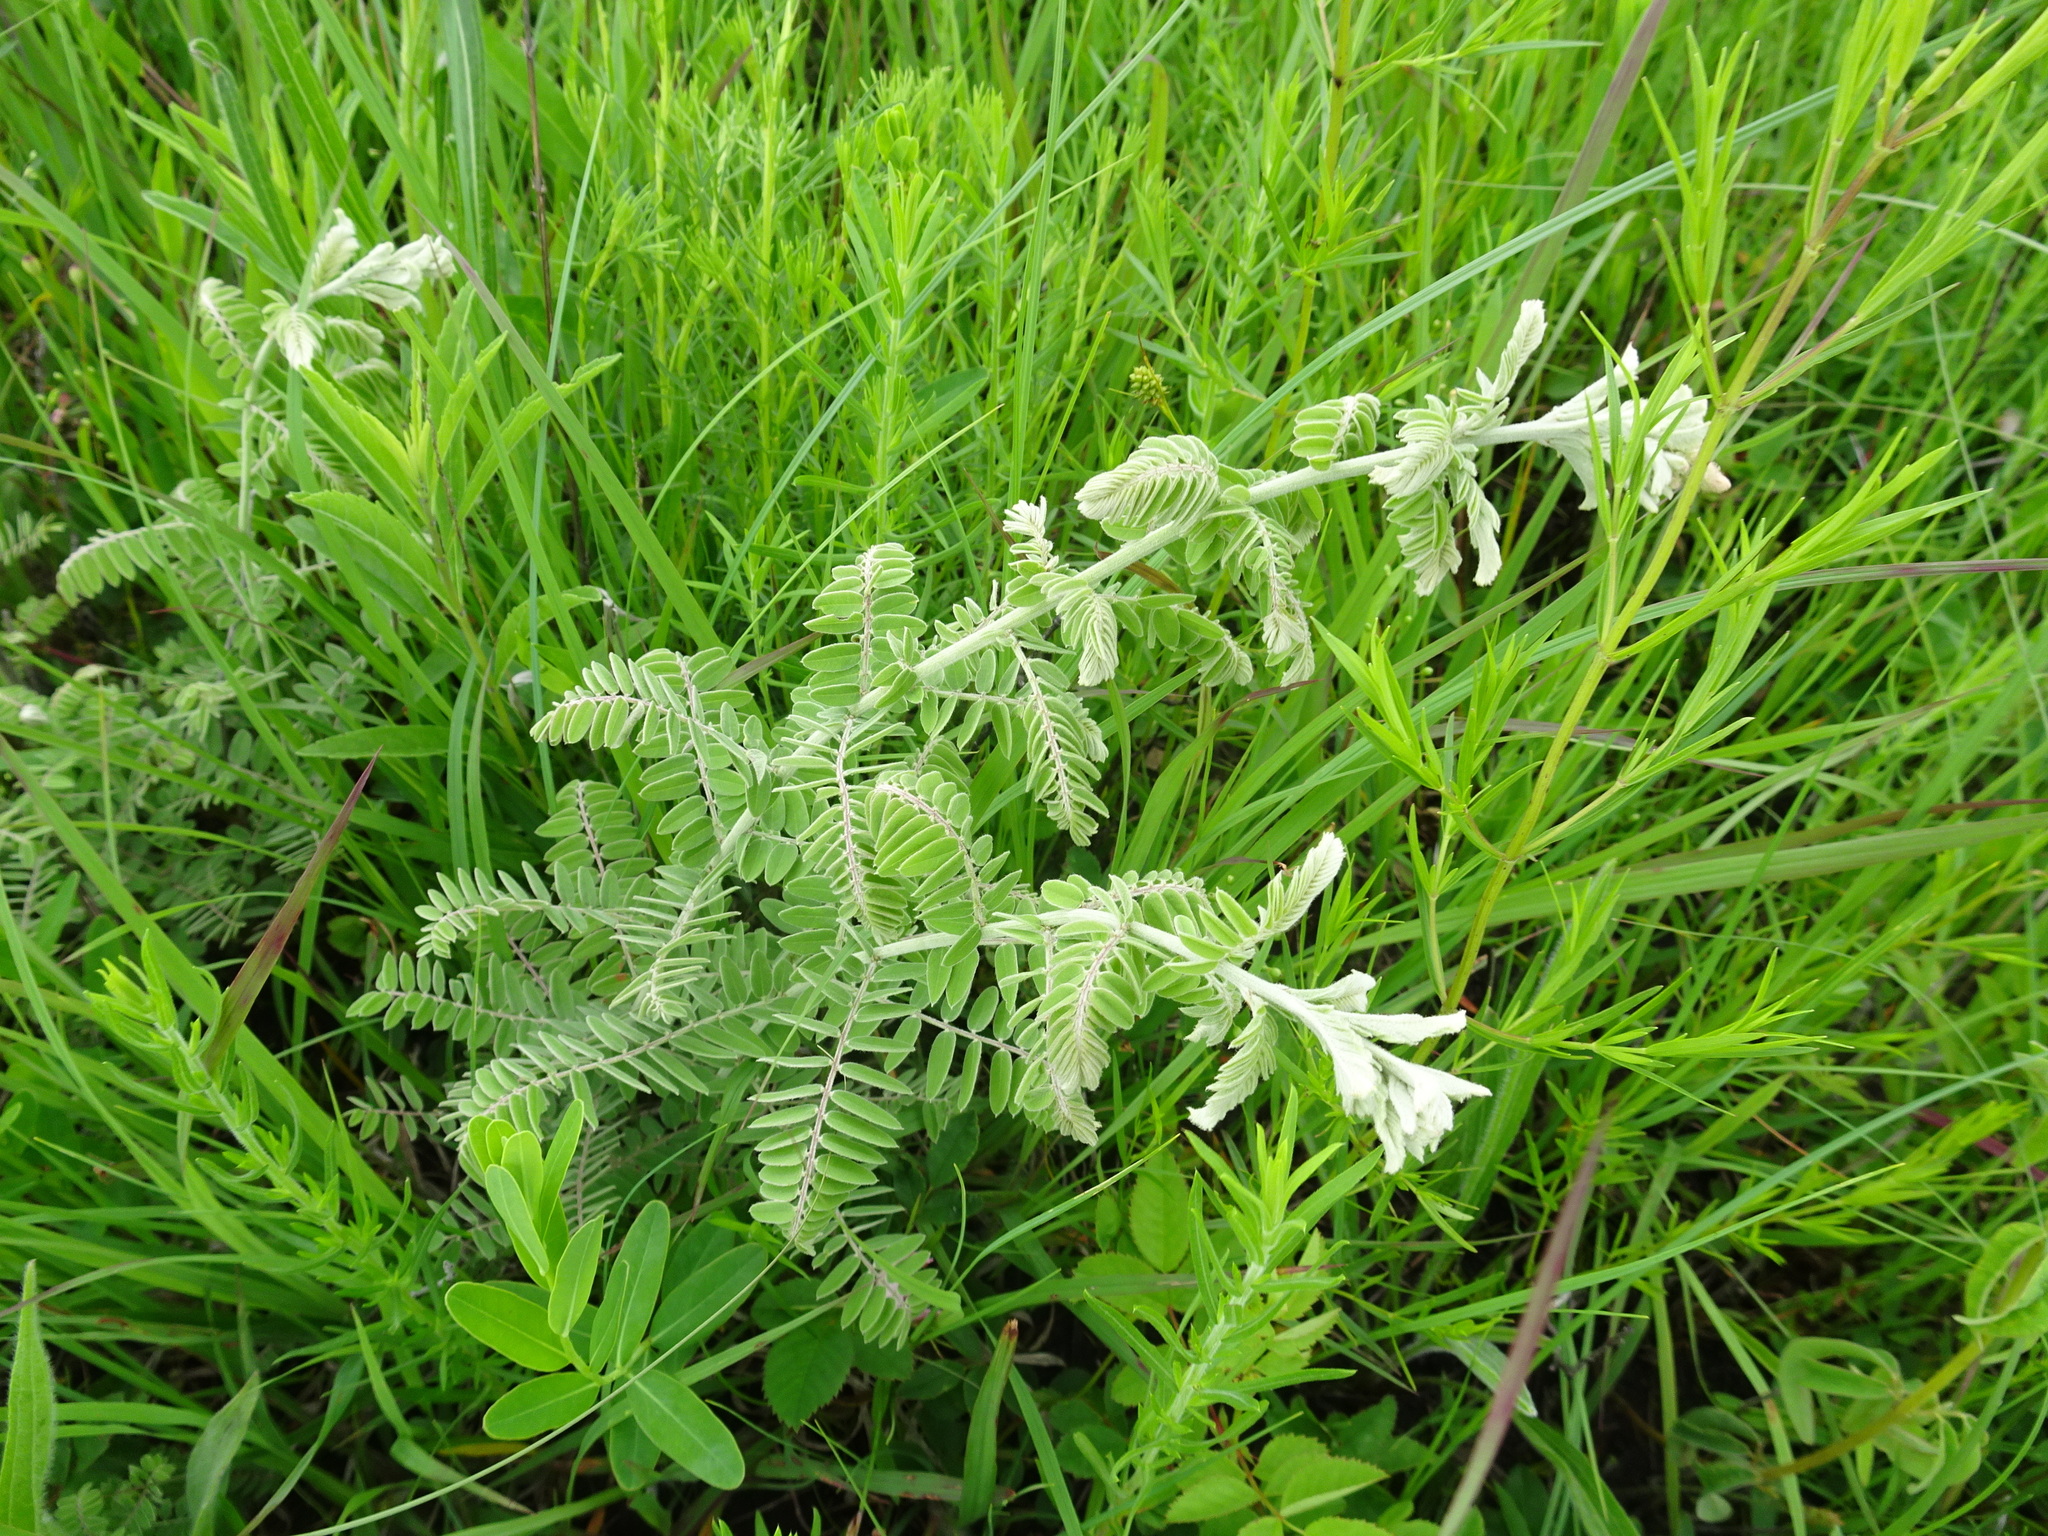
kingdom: Plantae
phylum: Tracheophyta
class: Magnoliopsida
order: Fabales
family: Fabaceae
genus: Amorpha
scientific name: Amorpha canescens
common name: Leadplant
